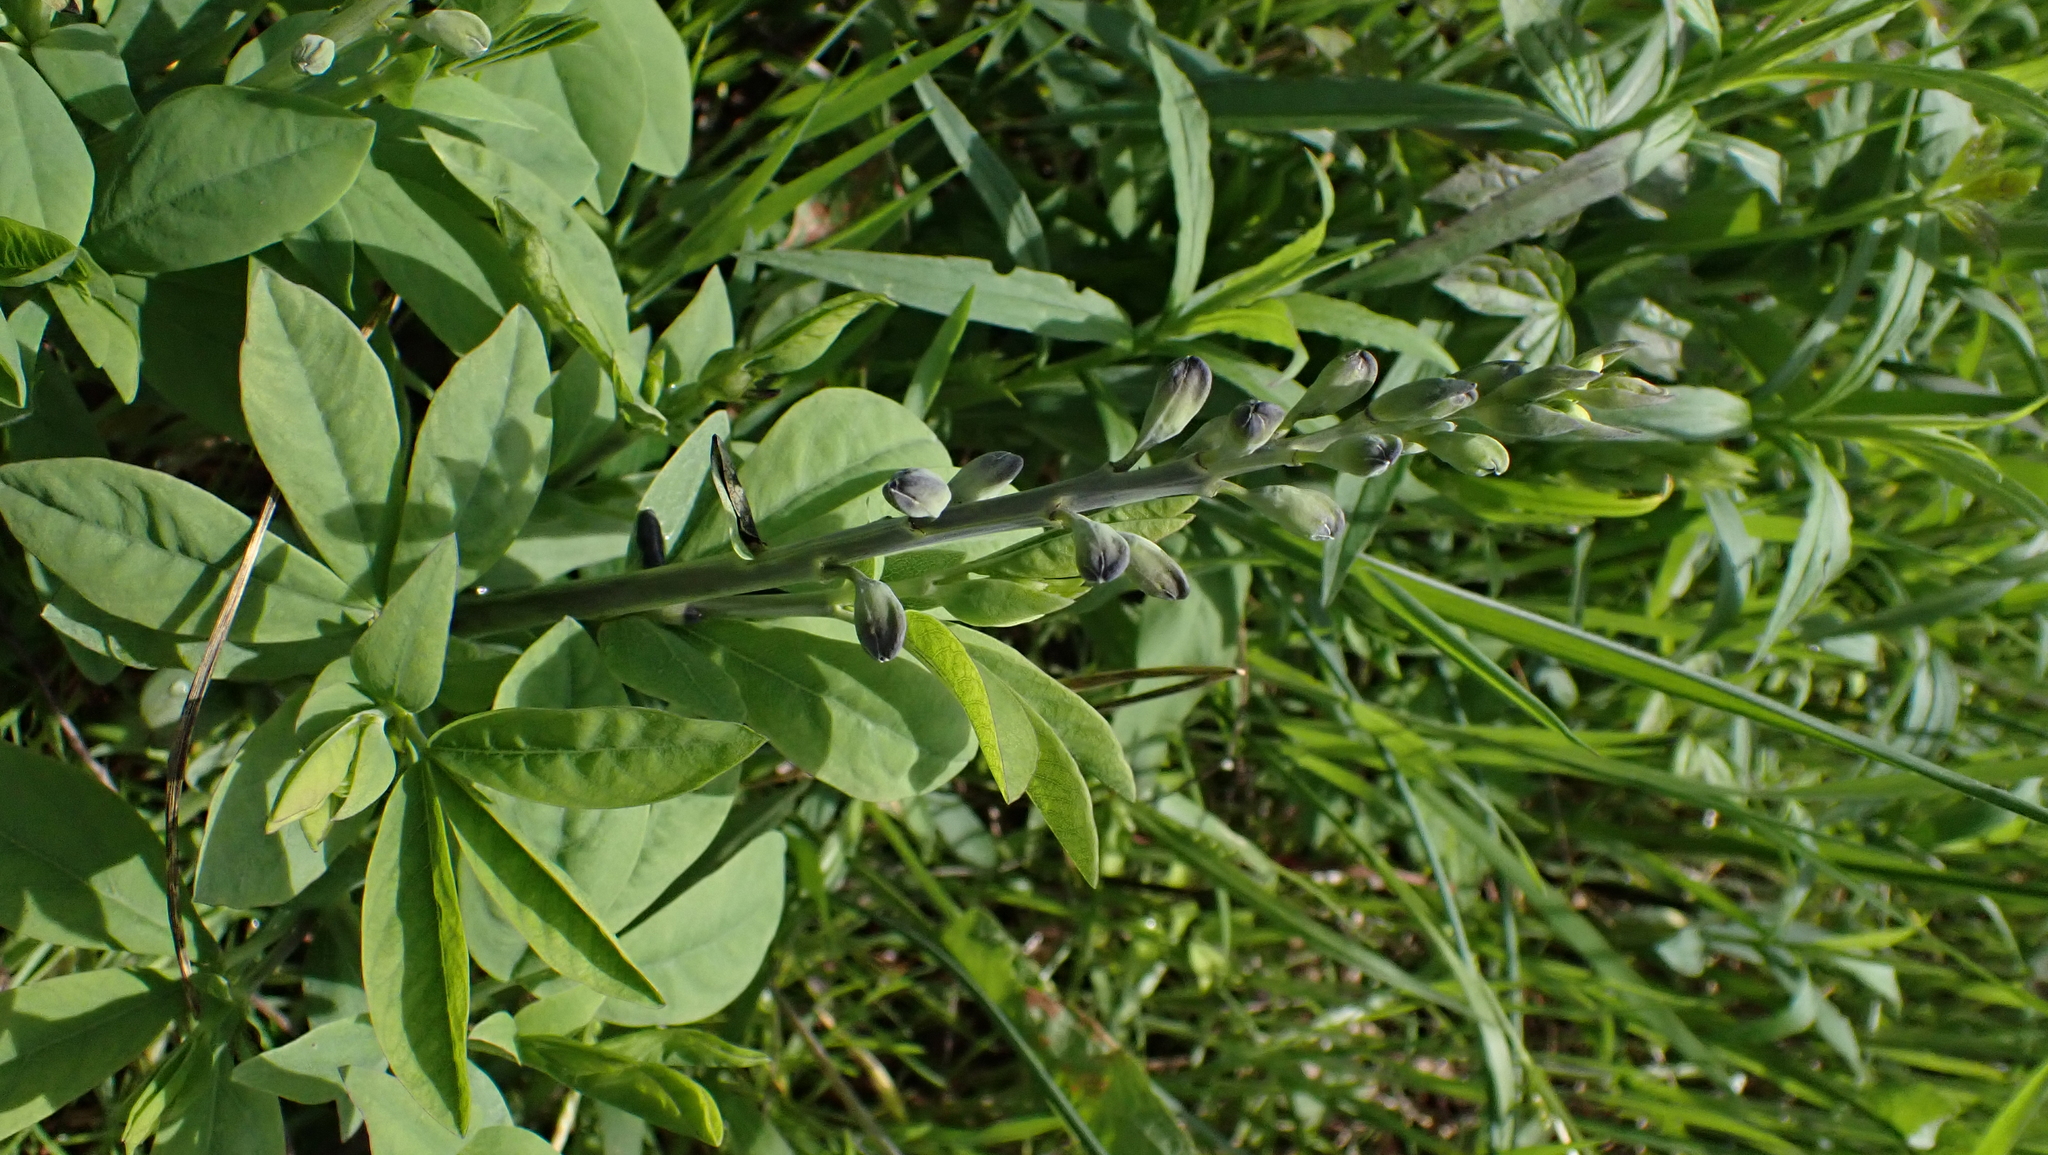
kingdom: Plantae
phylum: Tracheophyta
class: Magnoliopsida
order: Fabales
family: Fabaceae
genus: Baptisia
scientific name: Baptisia australis
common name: Blue false indigo
